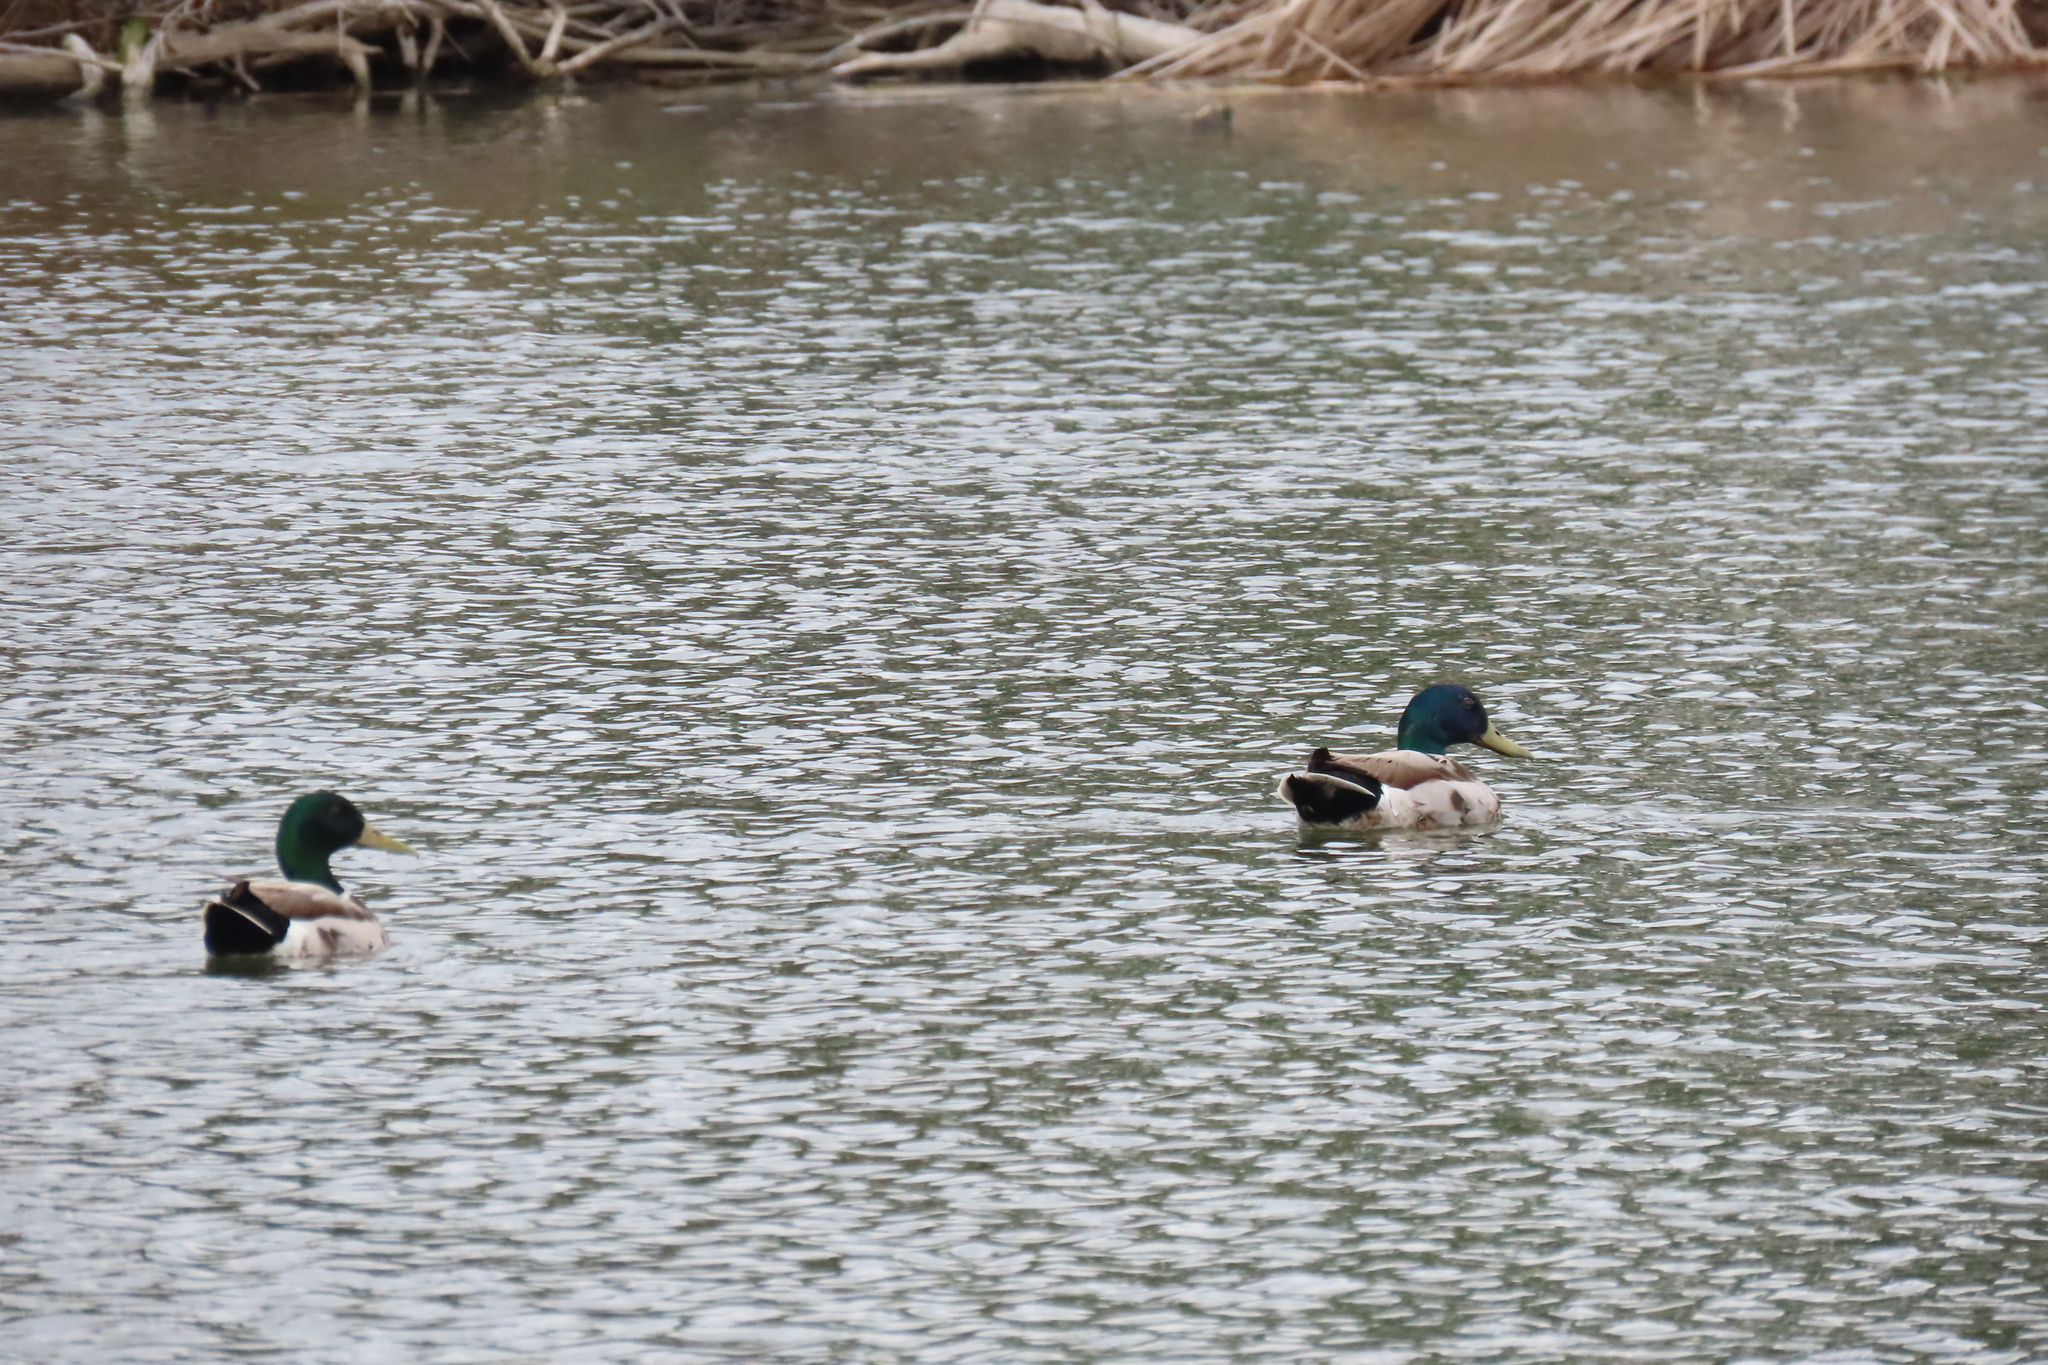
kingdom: Animalia
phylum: Chordata
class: Aves
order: Anseriformes
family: Anatidae
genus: Anas
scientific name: Anas platyrhynchos
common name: Mallard
